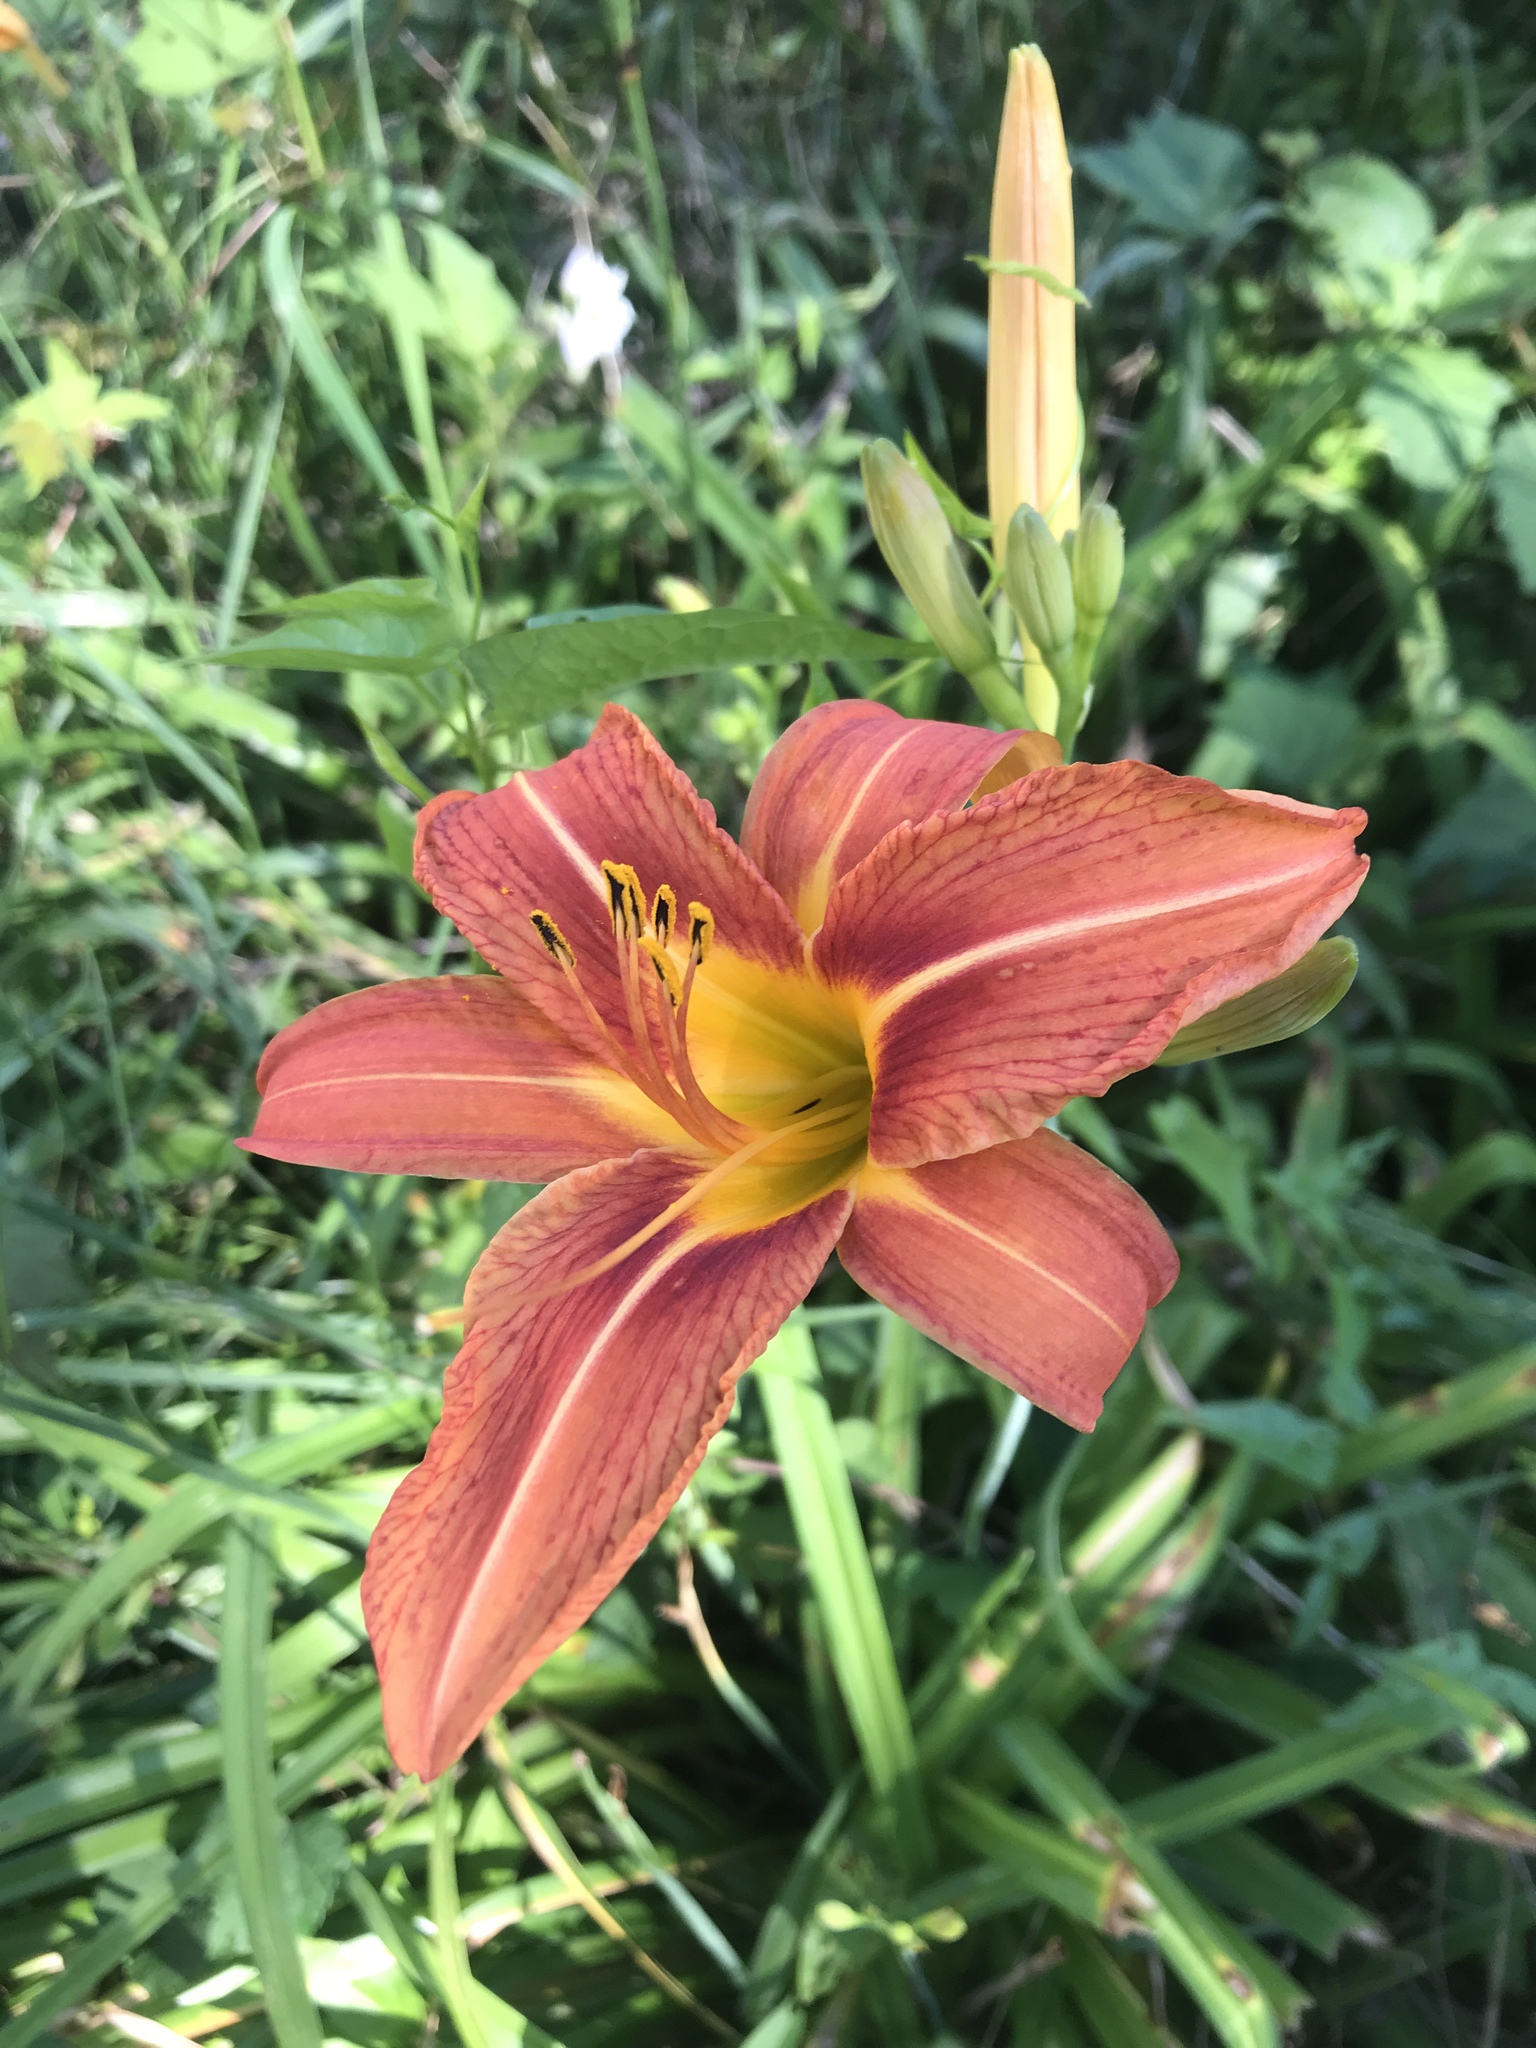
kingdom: Plantae
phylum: Tracheophyta
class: Liliopsida
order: Asparagales
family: Asphodelaceae
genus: Hemerocallis
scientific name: Hemerocallis fulva
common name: Orange day-lily
